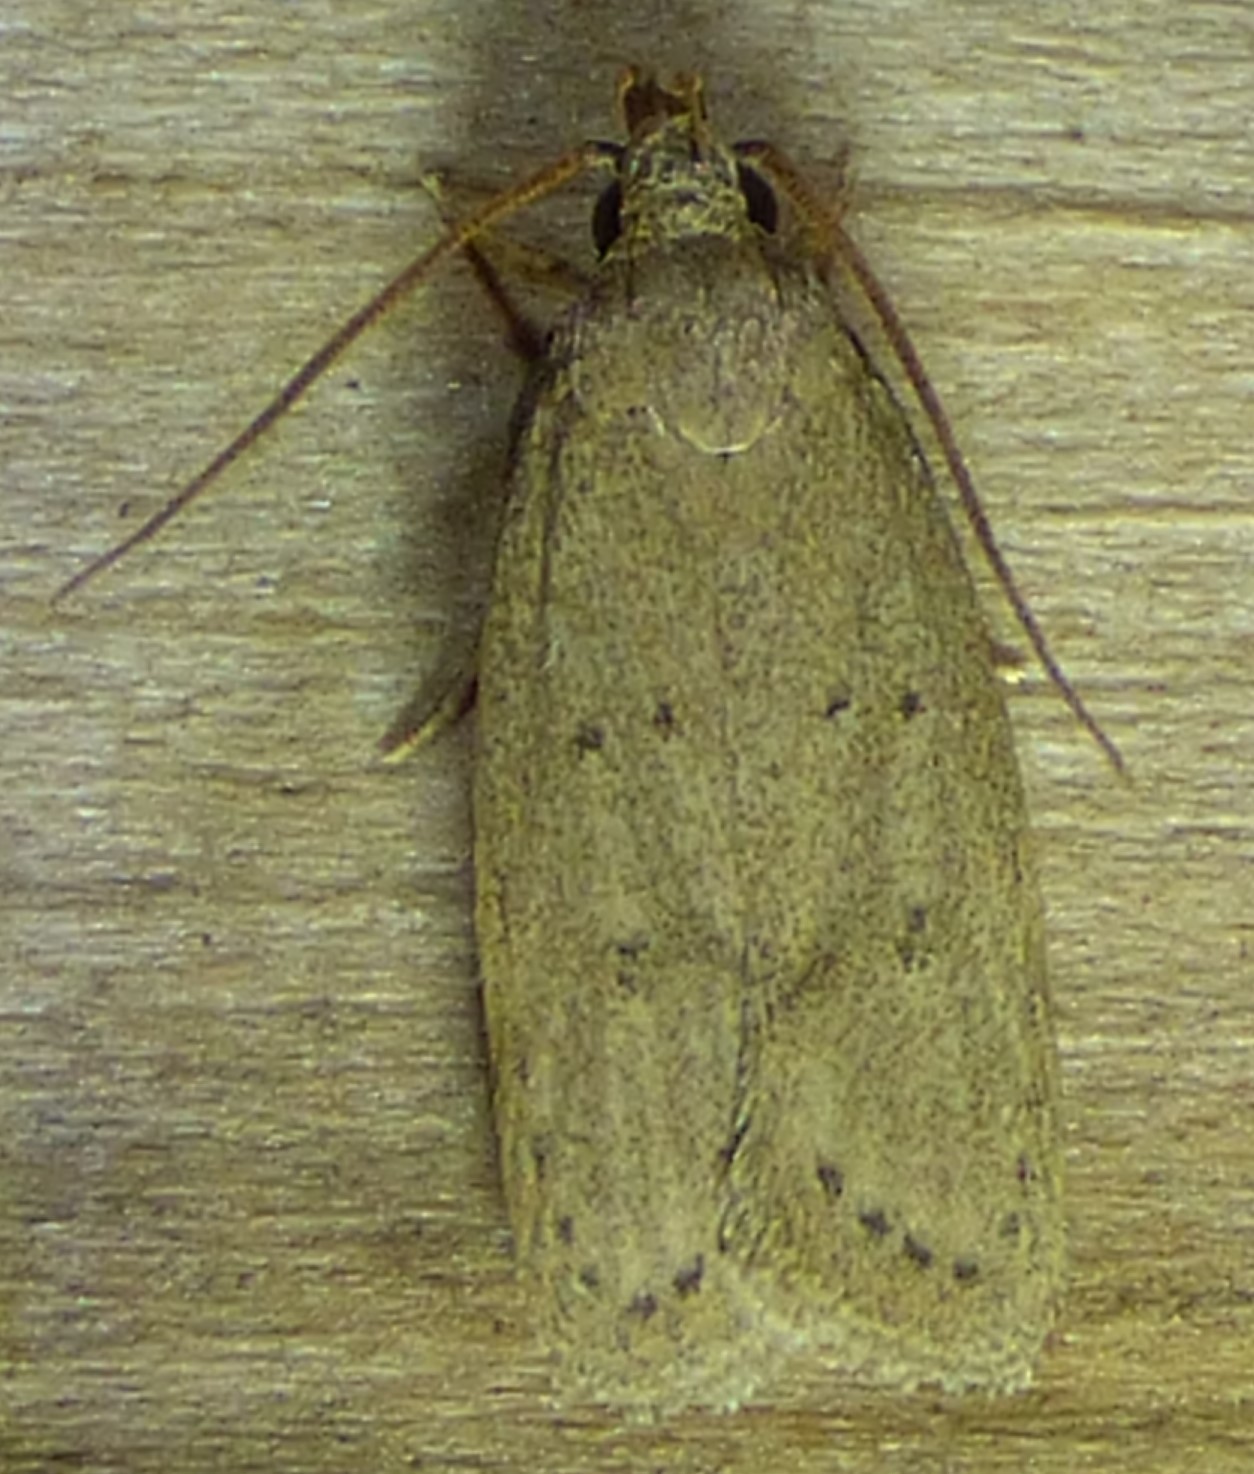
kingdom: Animalia
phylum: Arthropoda
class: Insecta
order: Lepidoptera
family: Autostichidae
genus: Autosticha
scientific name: Autosticha kyotensis
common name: Kyoto moth
